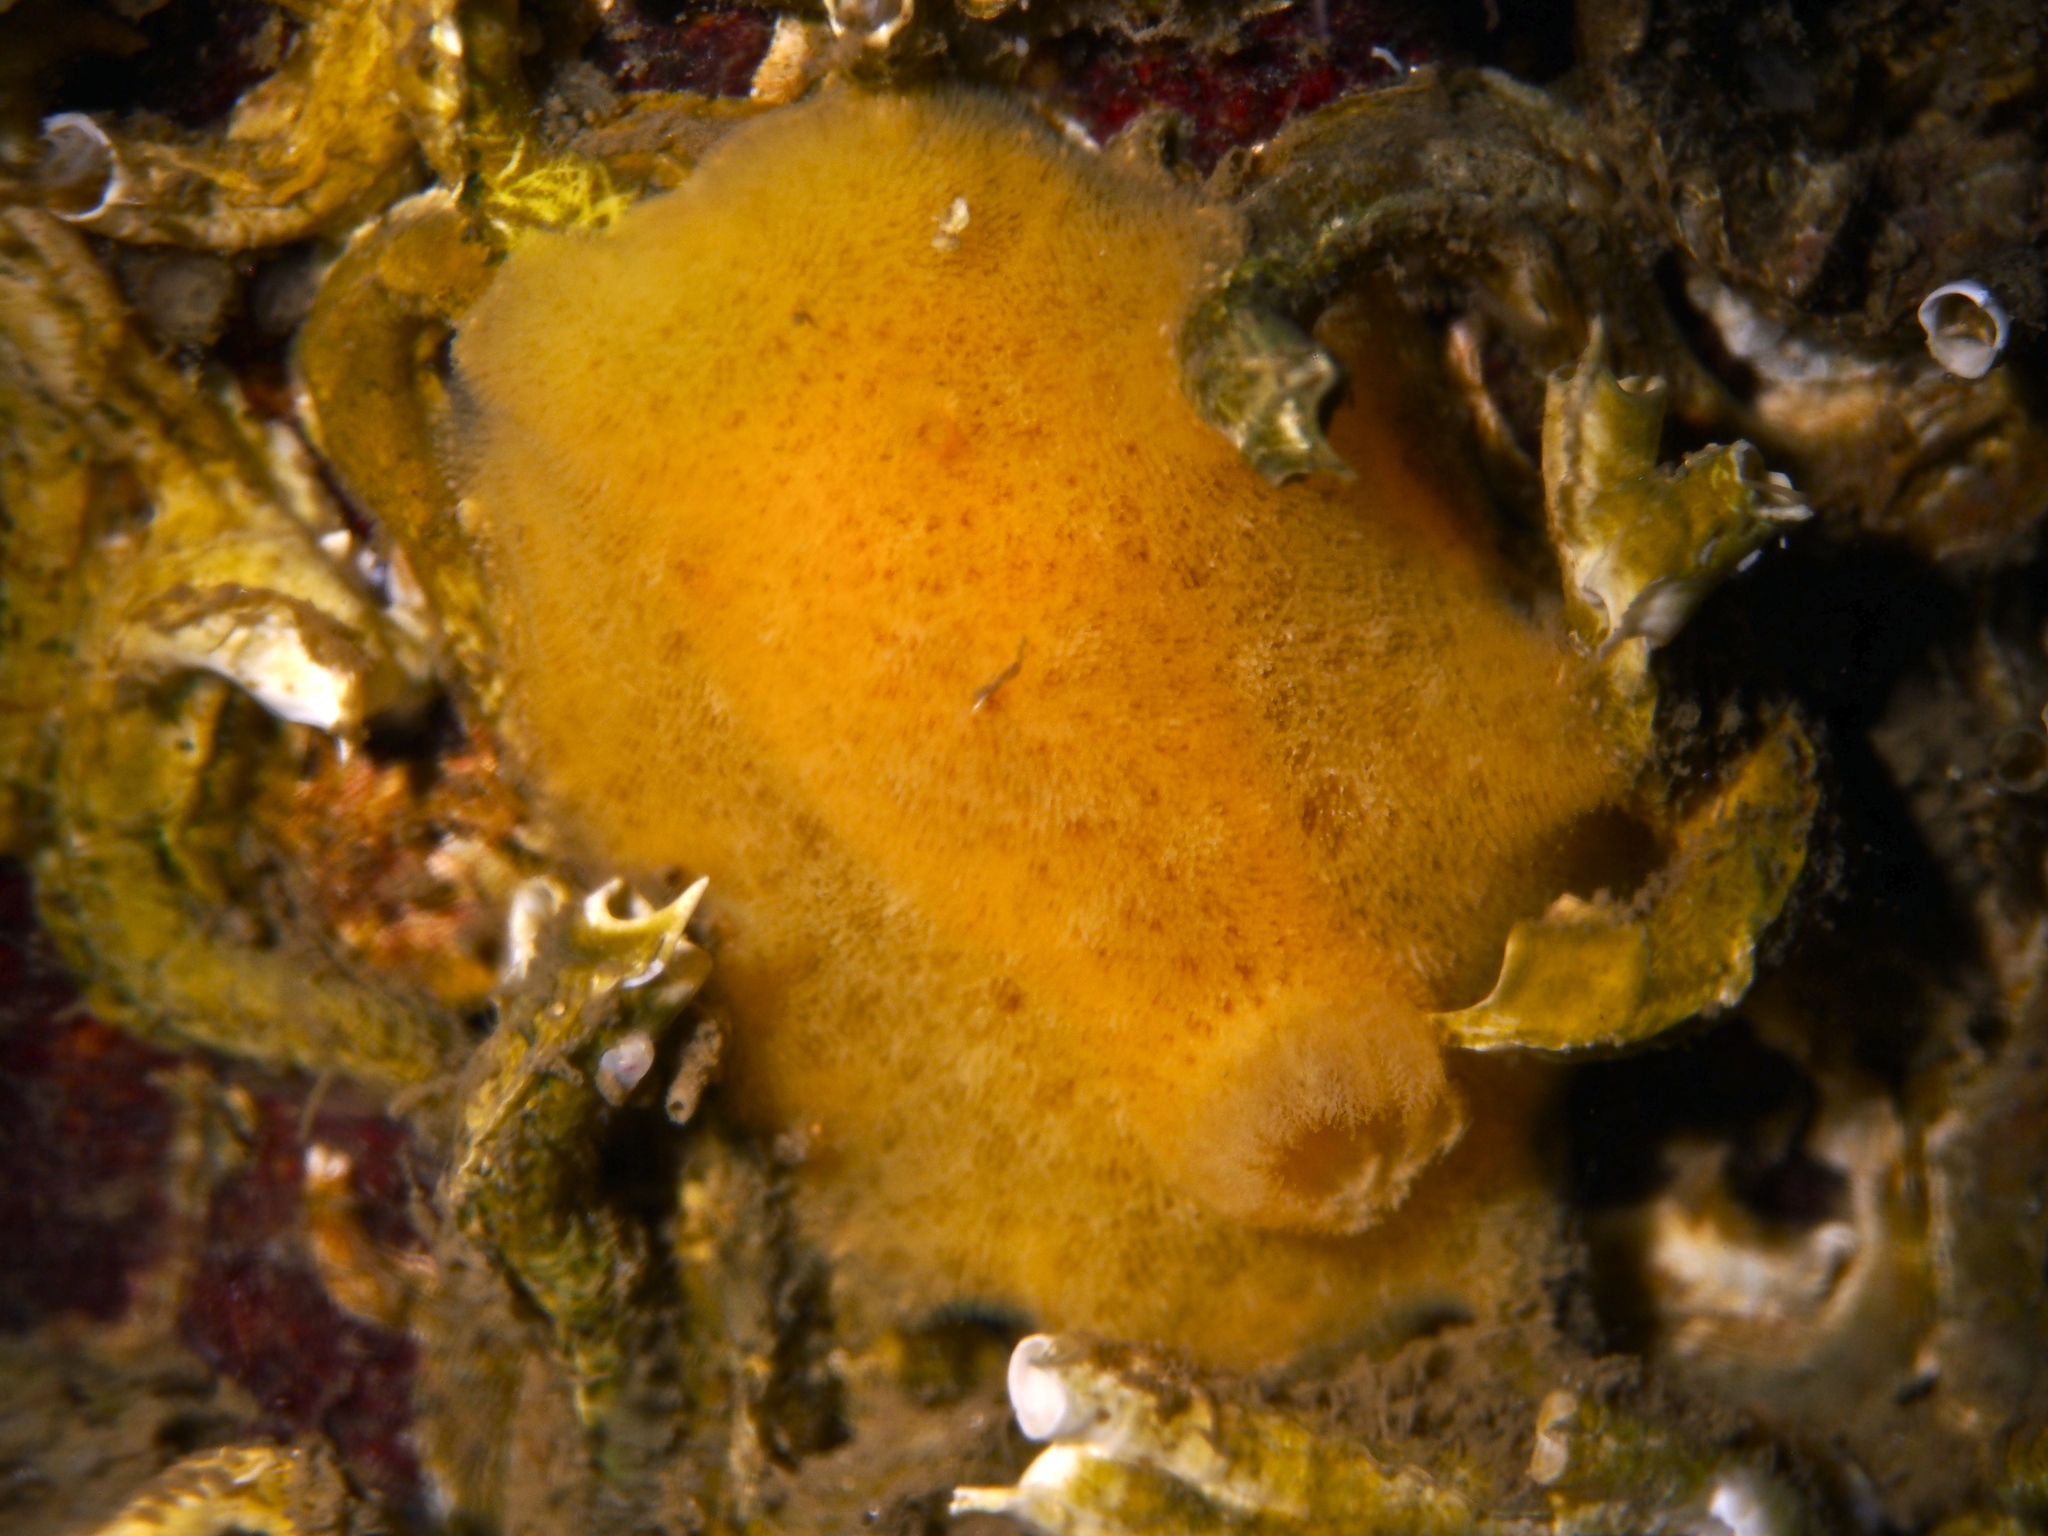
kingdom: Animalia
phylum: Mollusca
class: Gastropoda
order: Nudibranchia
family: Discodorididae
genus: Jorunna
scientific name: Jorunna tomentosa
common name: Grey sea slug
